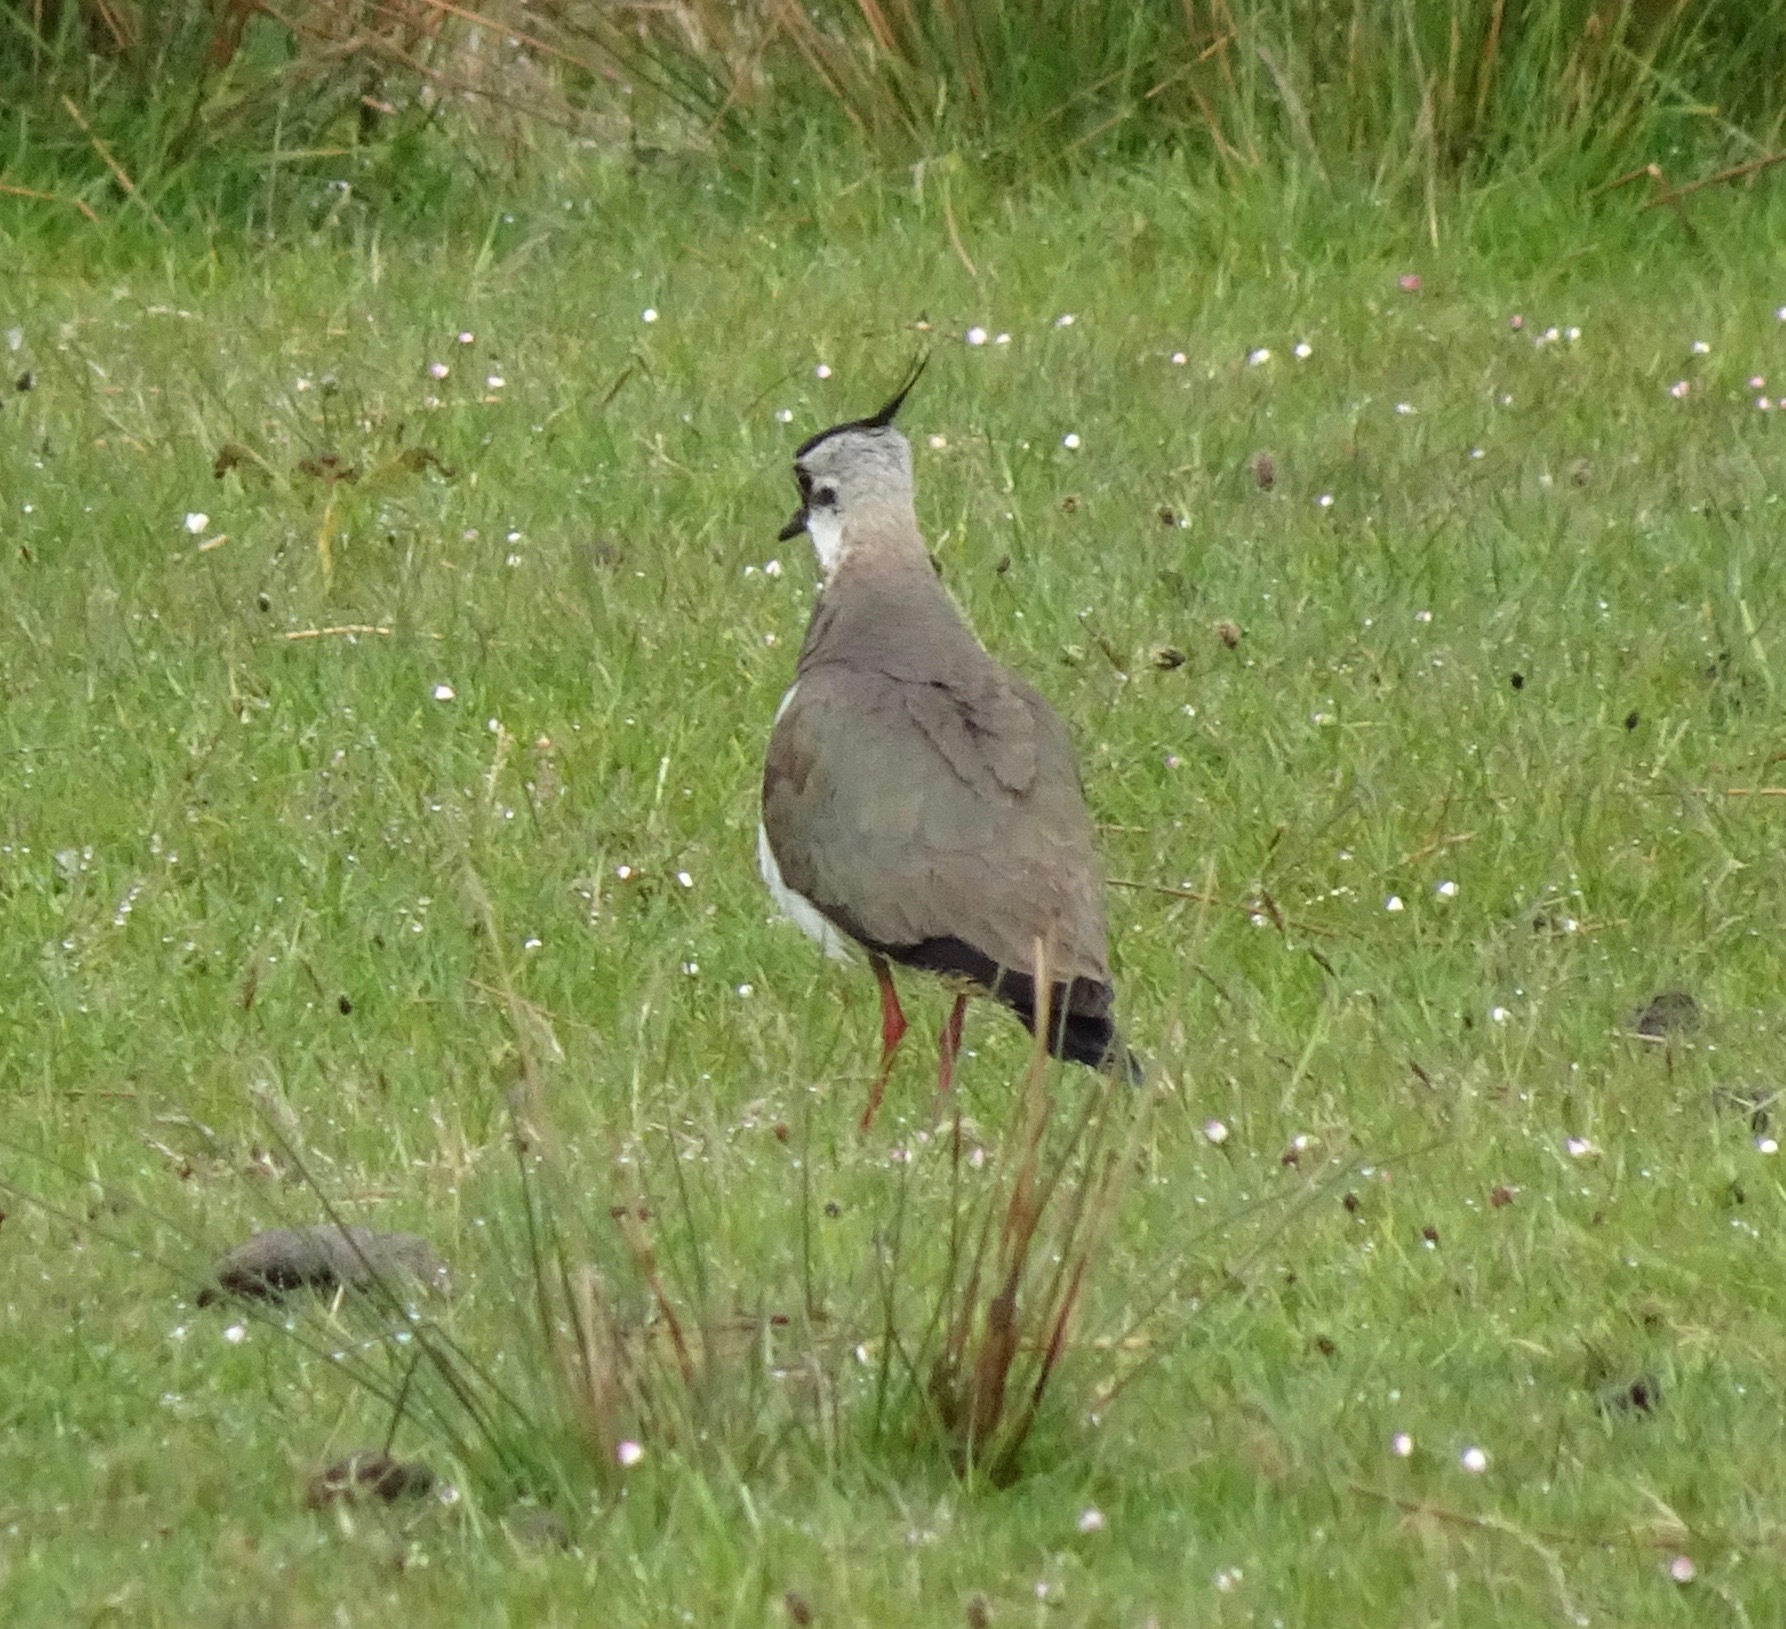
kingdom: Animalia
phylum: Chordata
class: Aves
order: Charadriiformes
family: Charadriidae
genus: Vanellus
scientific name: Vanellus vanellus
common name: Northern lapwing
